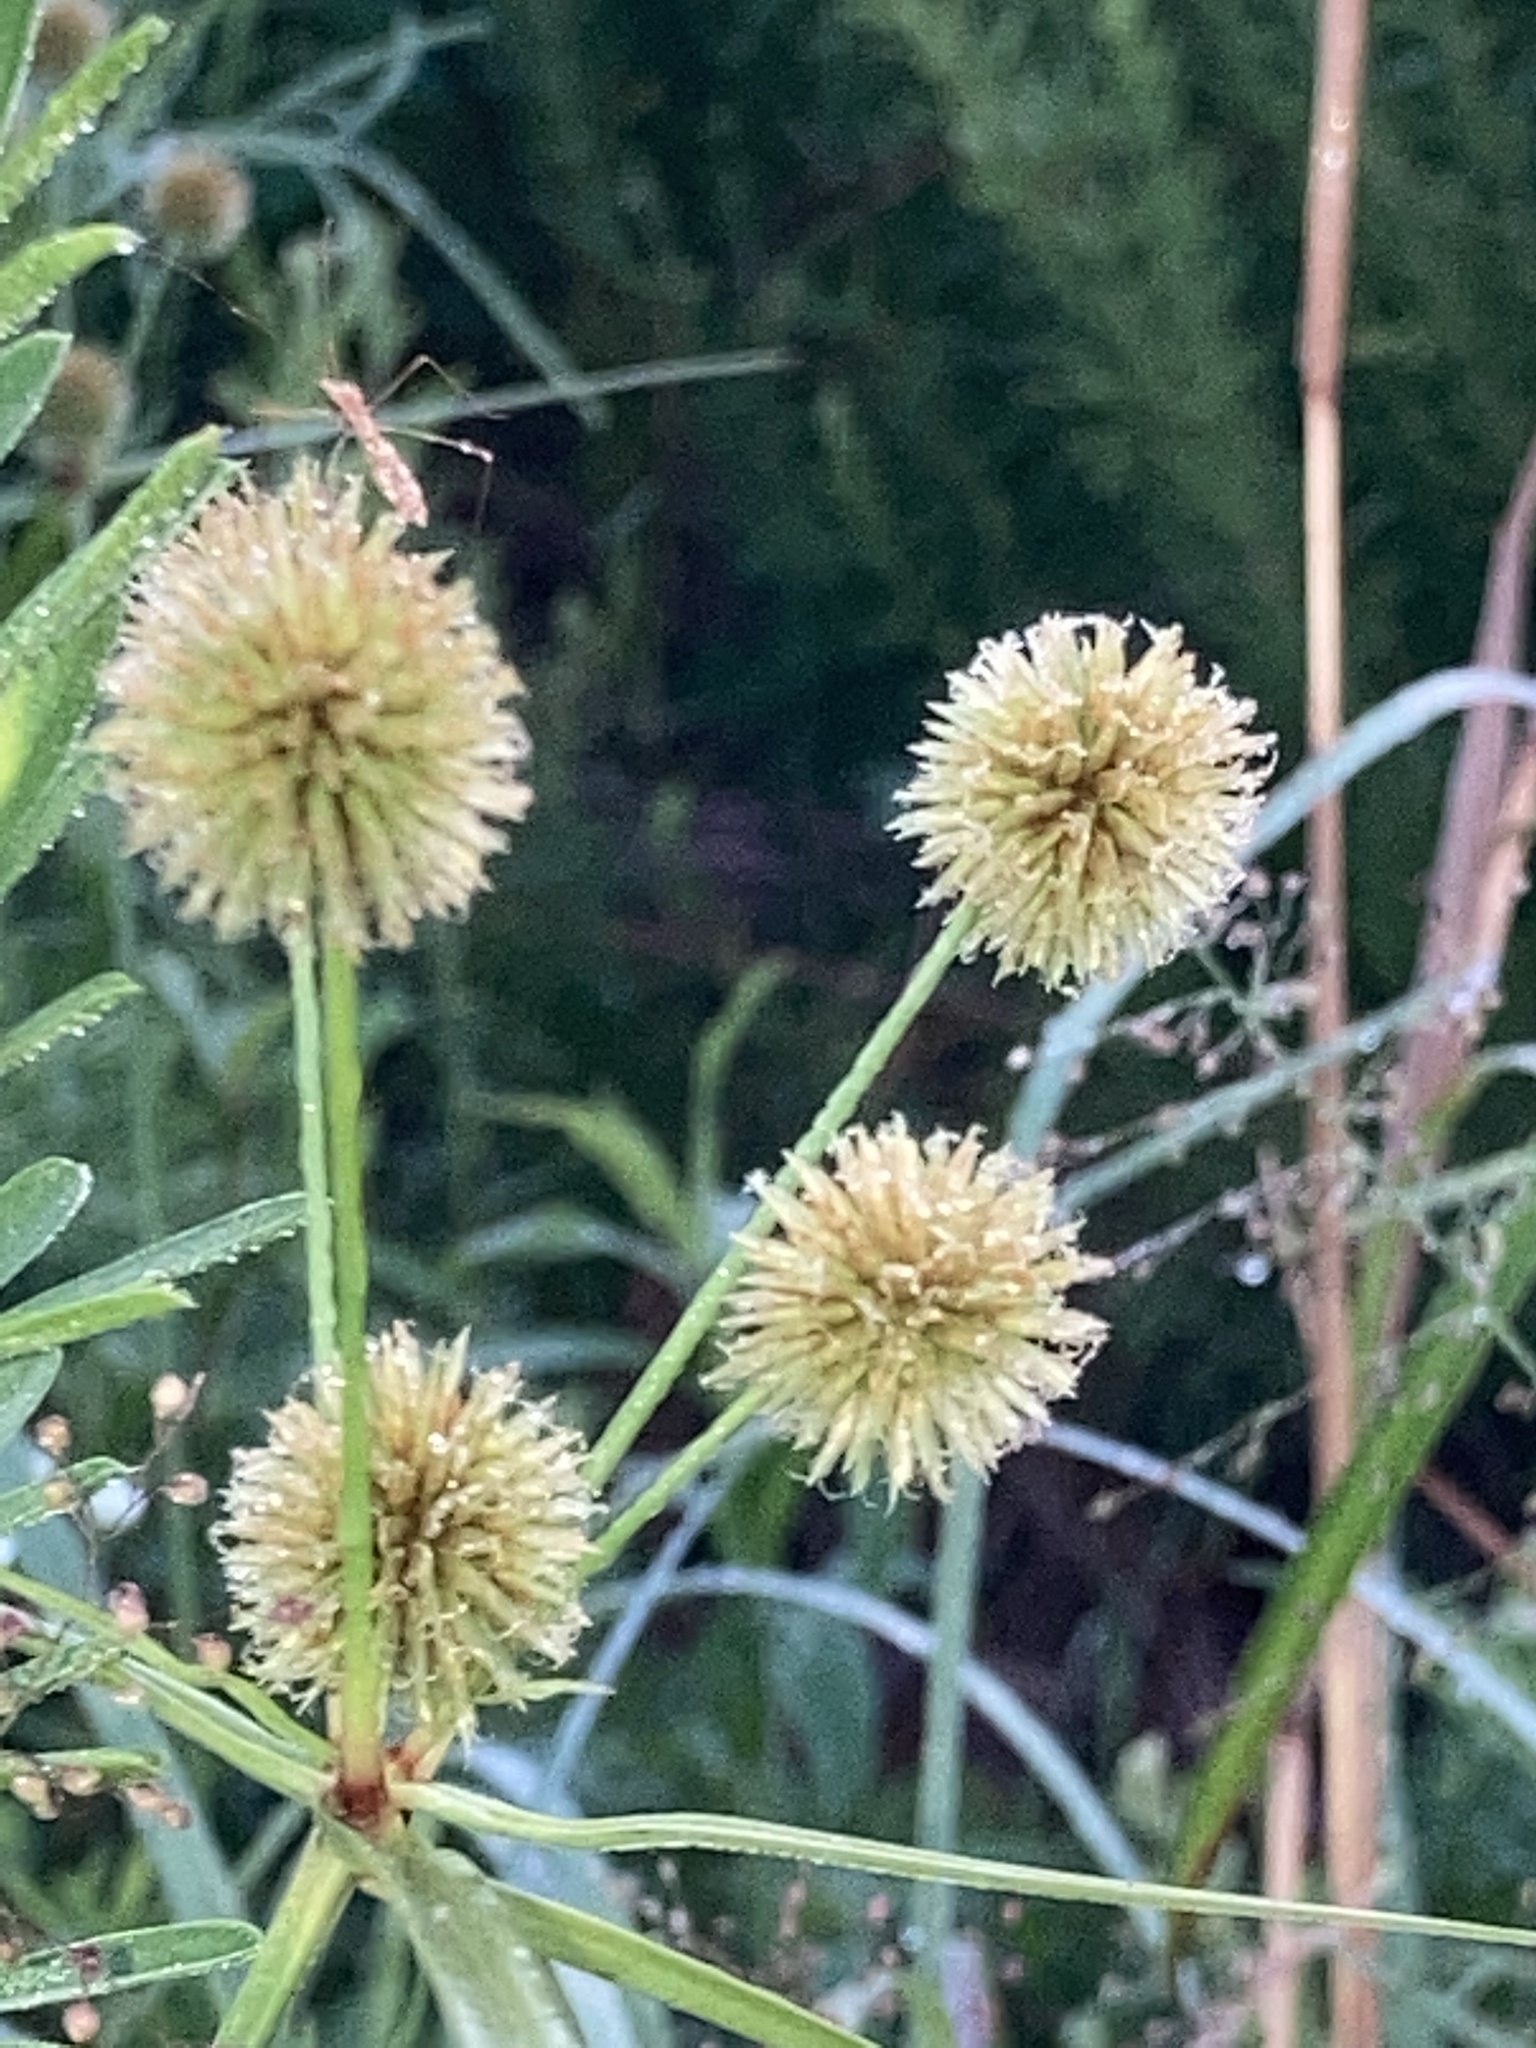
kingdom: Plantae
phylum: Tracheophyta
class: Liliopsida
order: Poales
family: Cyperaceae
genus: Cyperus
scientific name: Cyperus echinatus
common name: Teasel sedge
